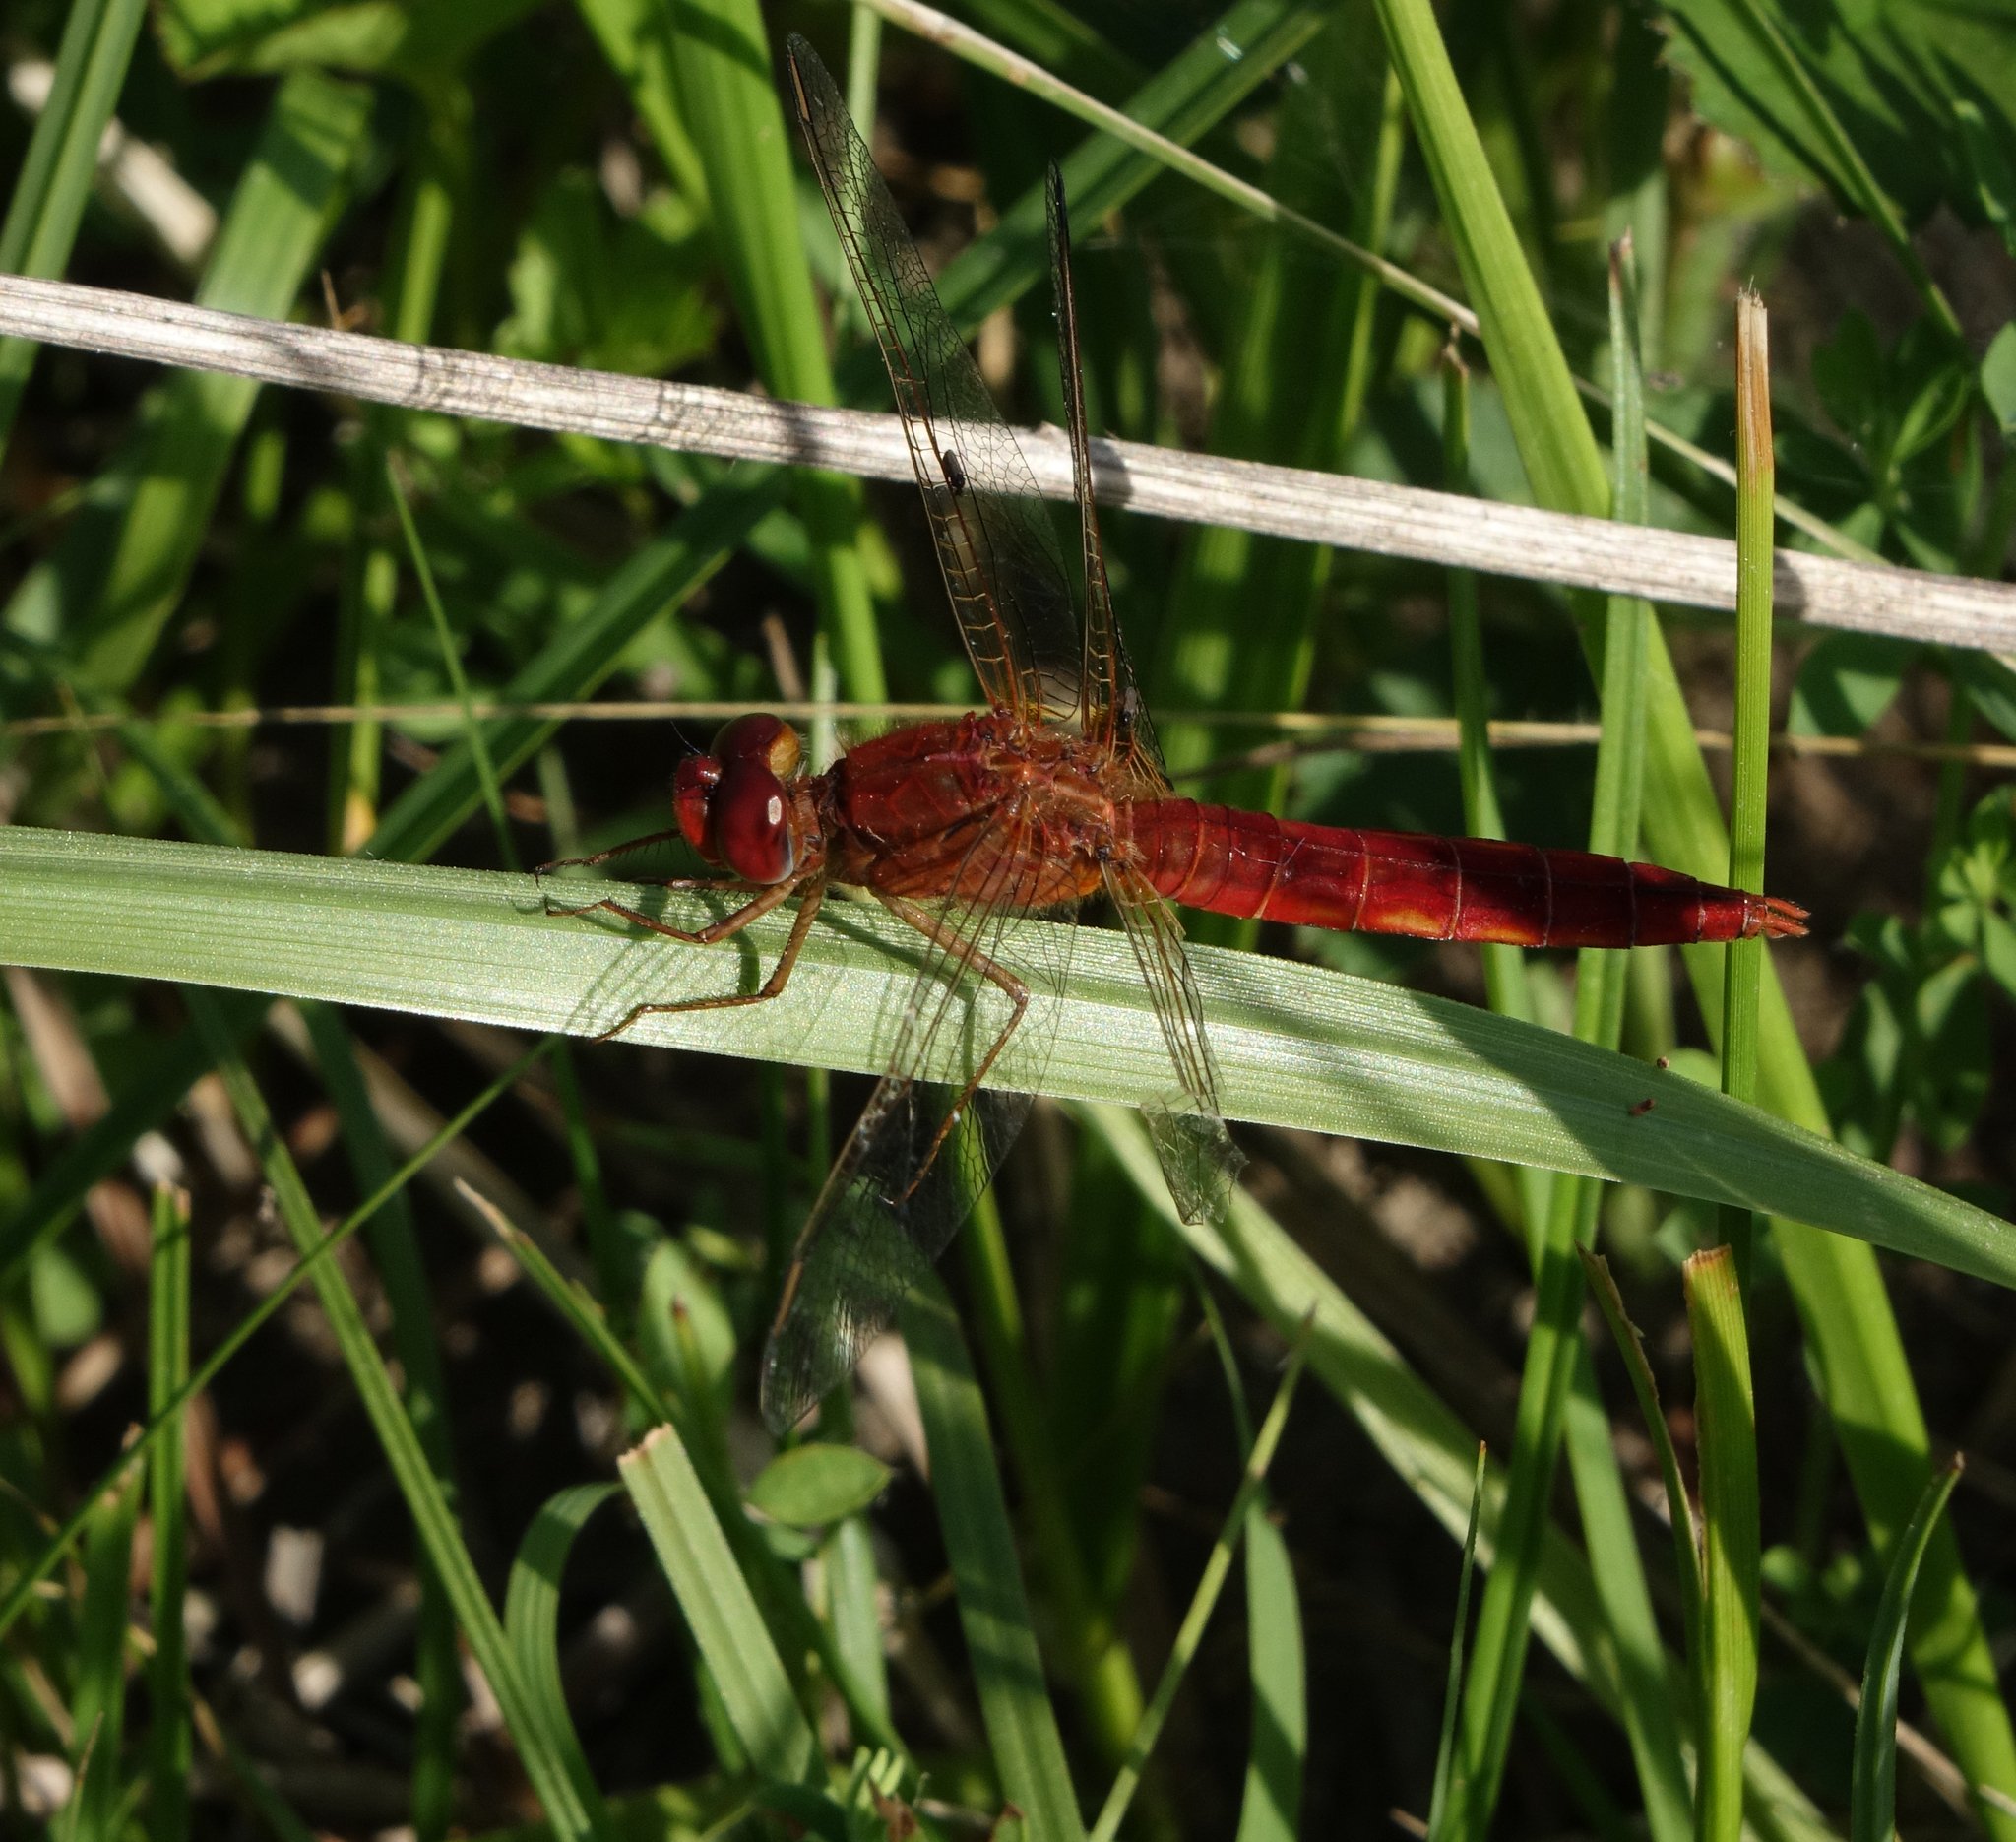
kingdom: Animalia
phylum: Arthropoda
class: Insecta
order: Odonata
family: Libellulidae
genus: Crocothemis
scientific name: Crocothemis erythraea
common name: Scarlet dragonfly
